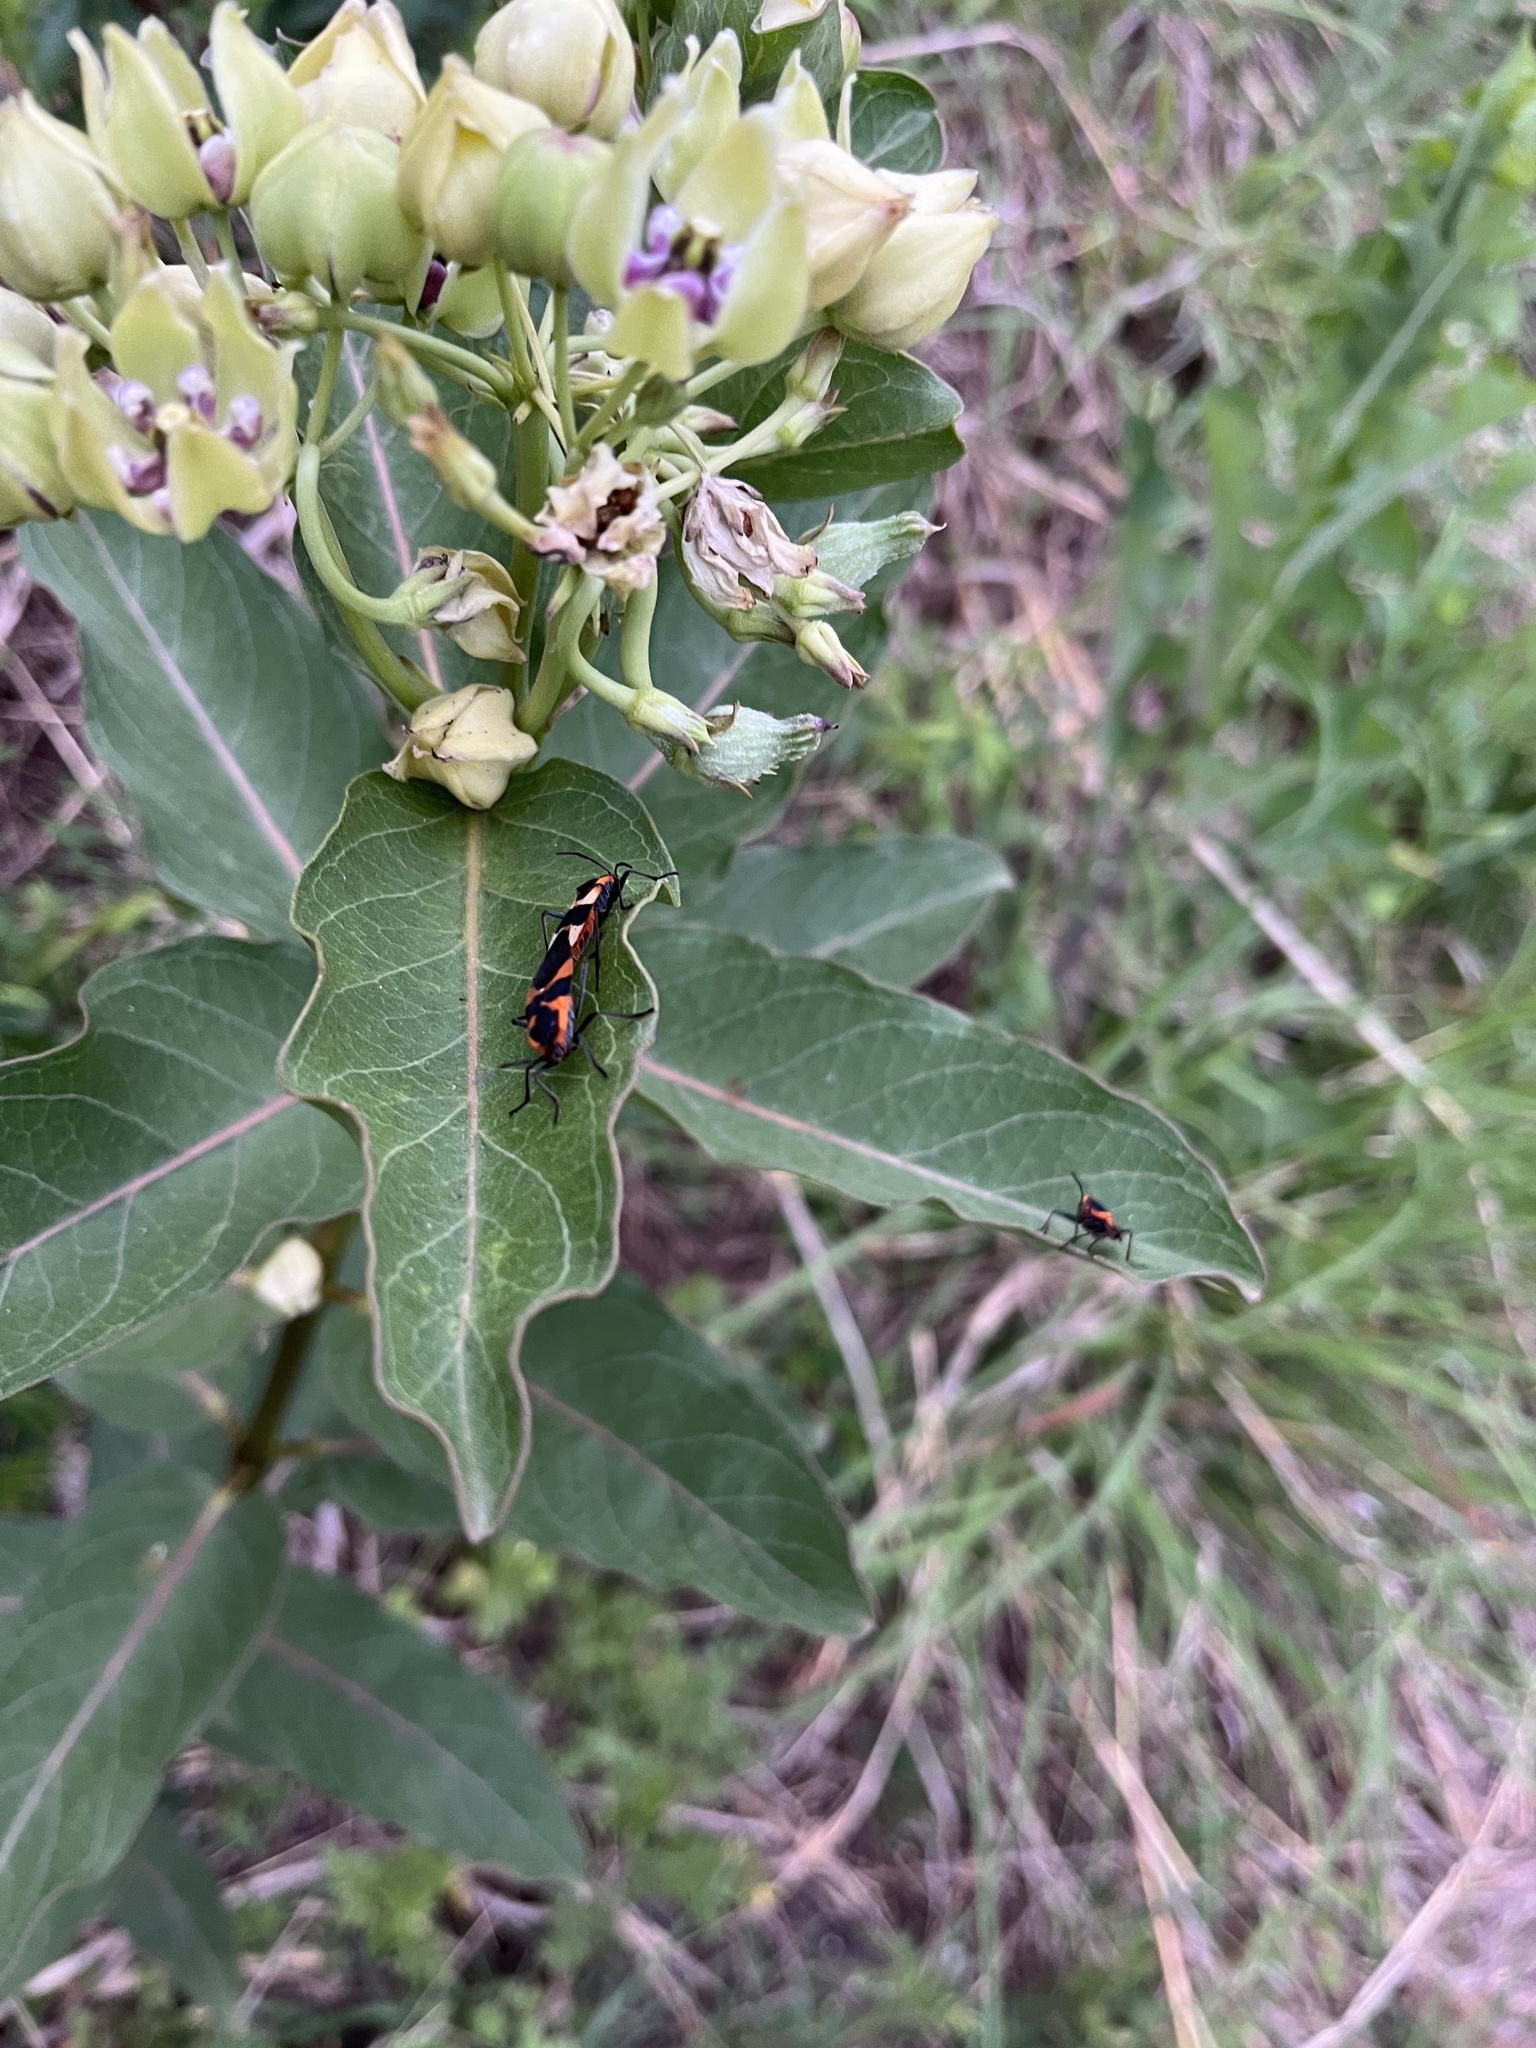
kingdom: Animalia
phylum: Arthropoda
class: Insecta
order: Hemiptera
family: Lygaeidae
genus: Oncopeltus
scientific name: Oncopeltus fasciatus
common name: Large milkweed bug
